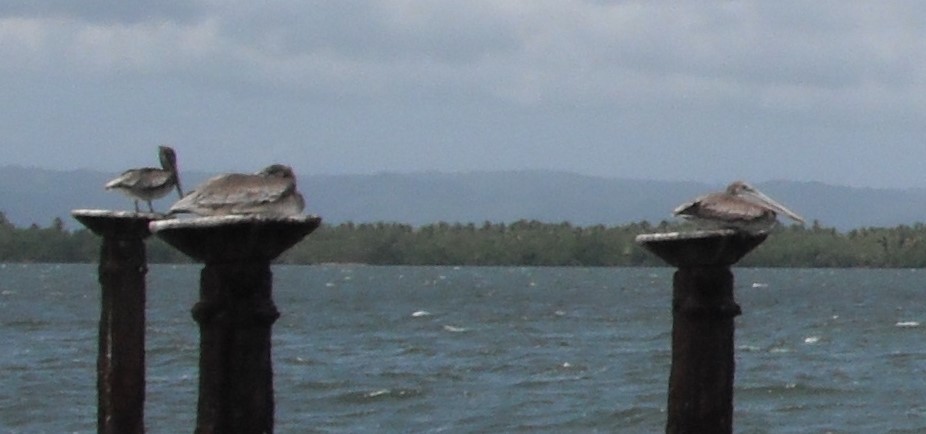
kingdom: Animalia
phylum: Chordata
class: Aves
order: Pelecaniformes
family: Pelecanidae
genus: Pelecanus
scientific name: Pelecanus occidentalis
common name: Brown pelican
